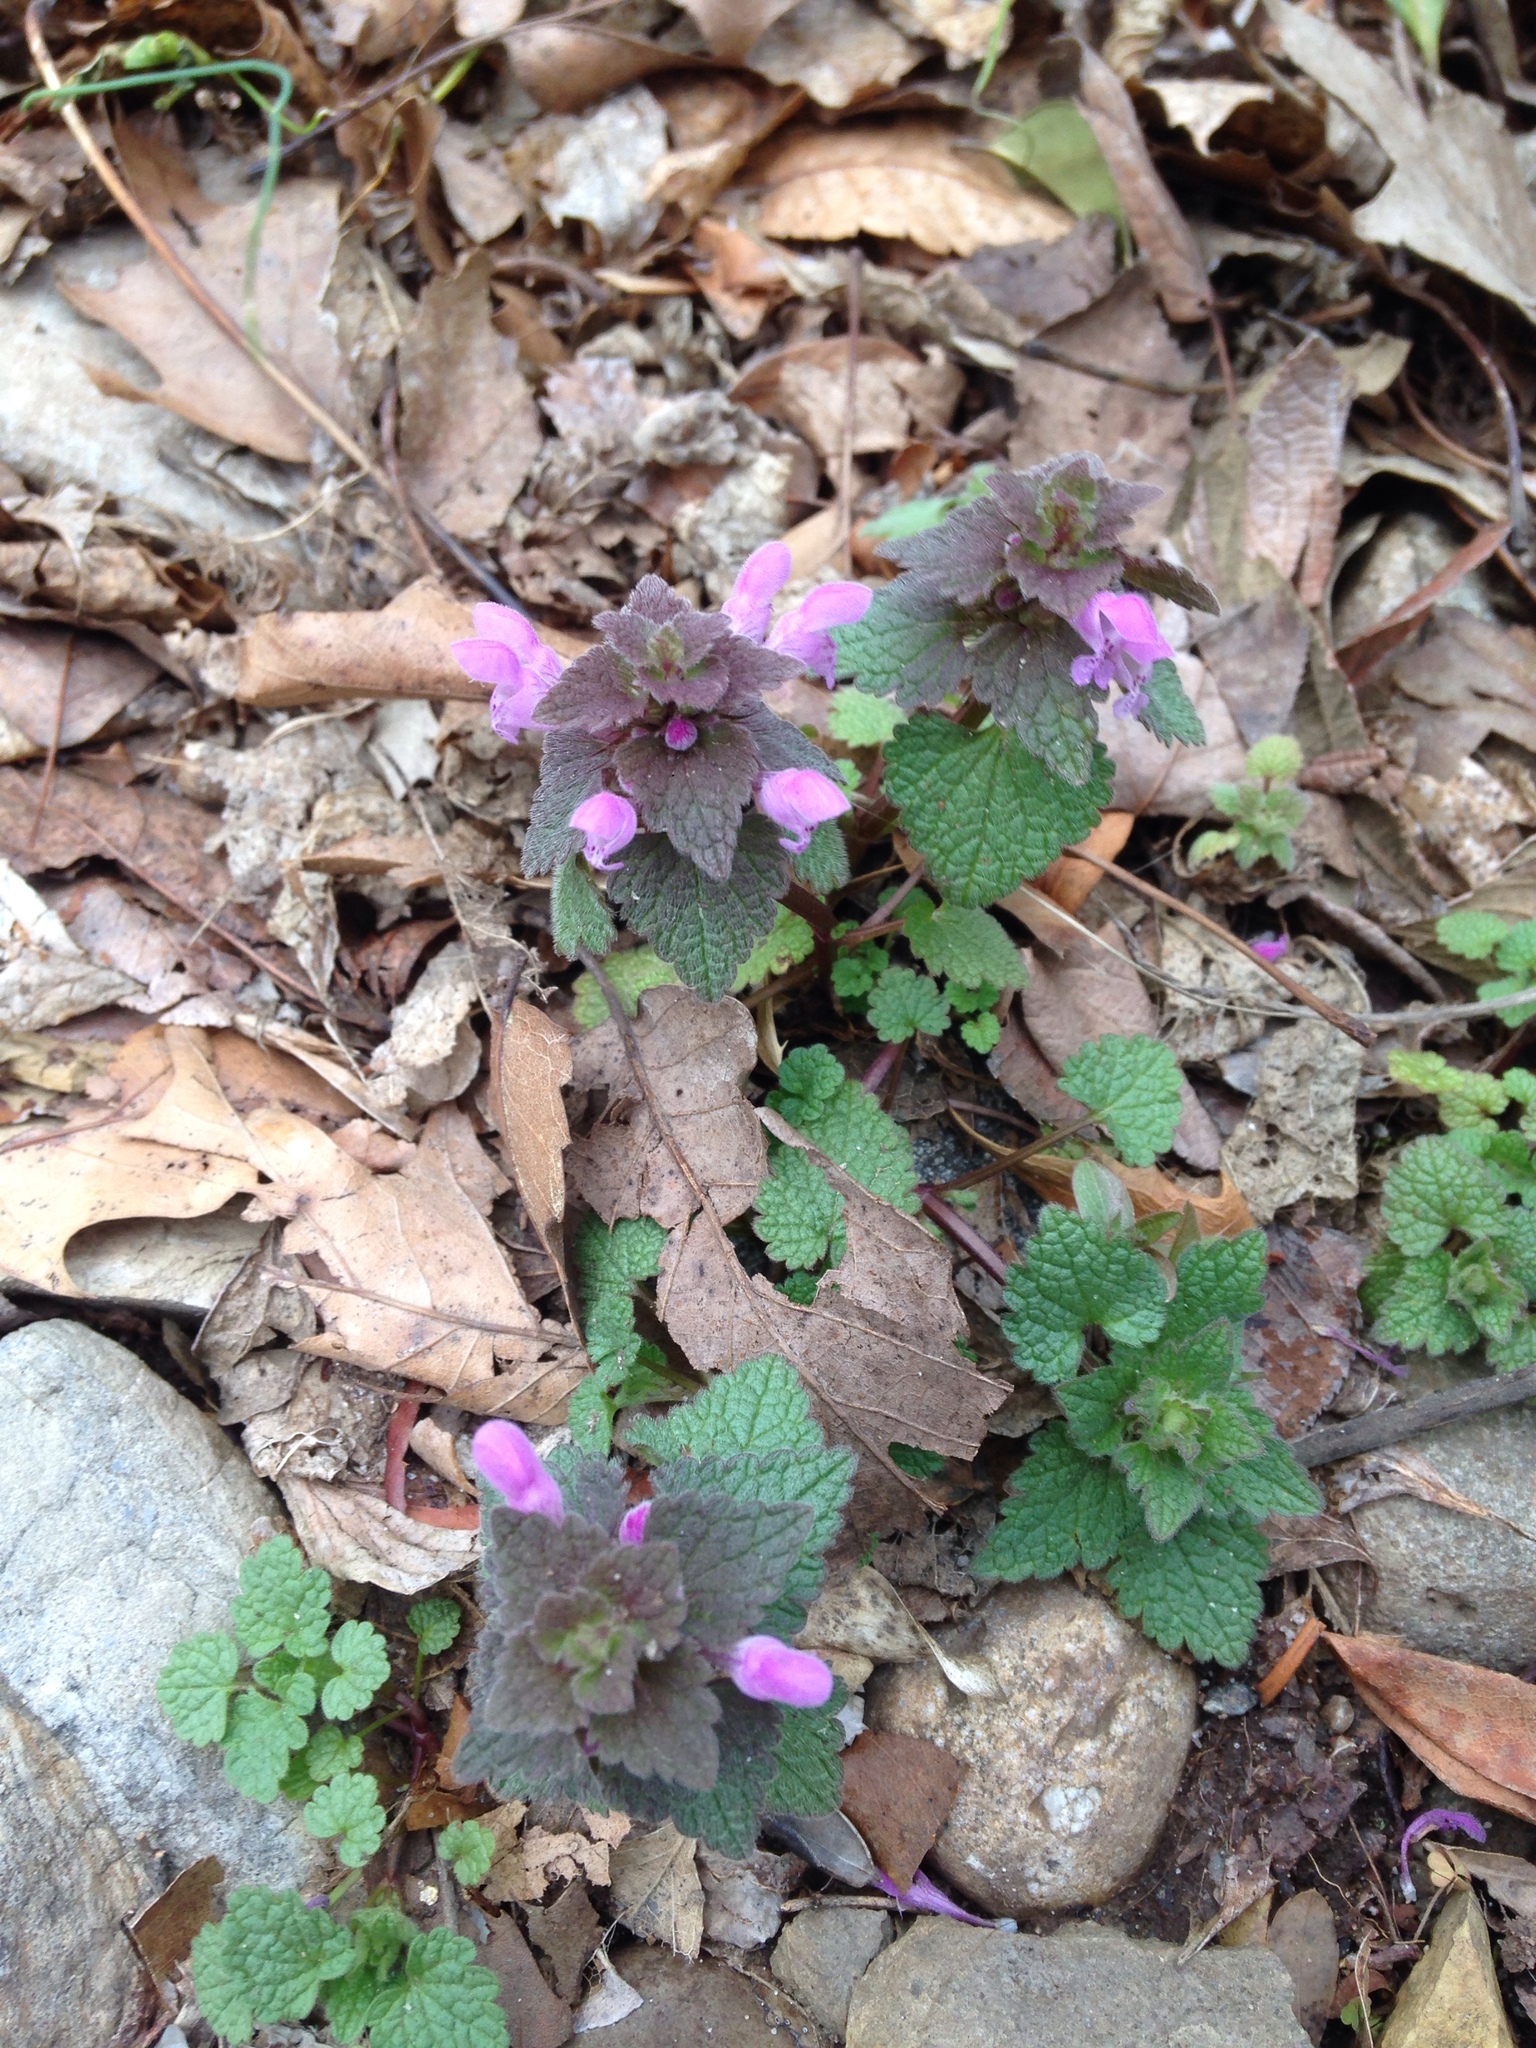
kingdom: Plantae
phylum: Tracheophyta
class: Magnoliopsida
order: Lamiales
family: Lamiaceae
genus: Lamium
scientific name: Lamium purpureum
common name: Red dead-nettle
